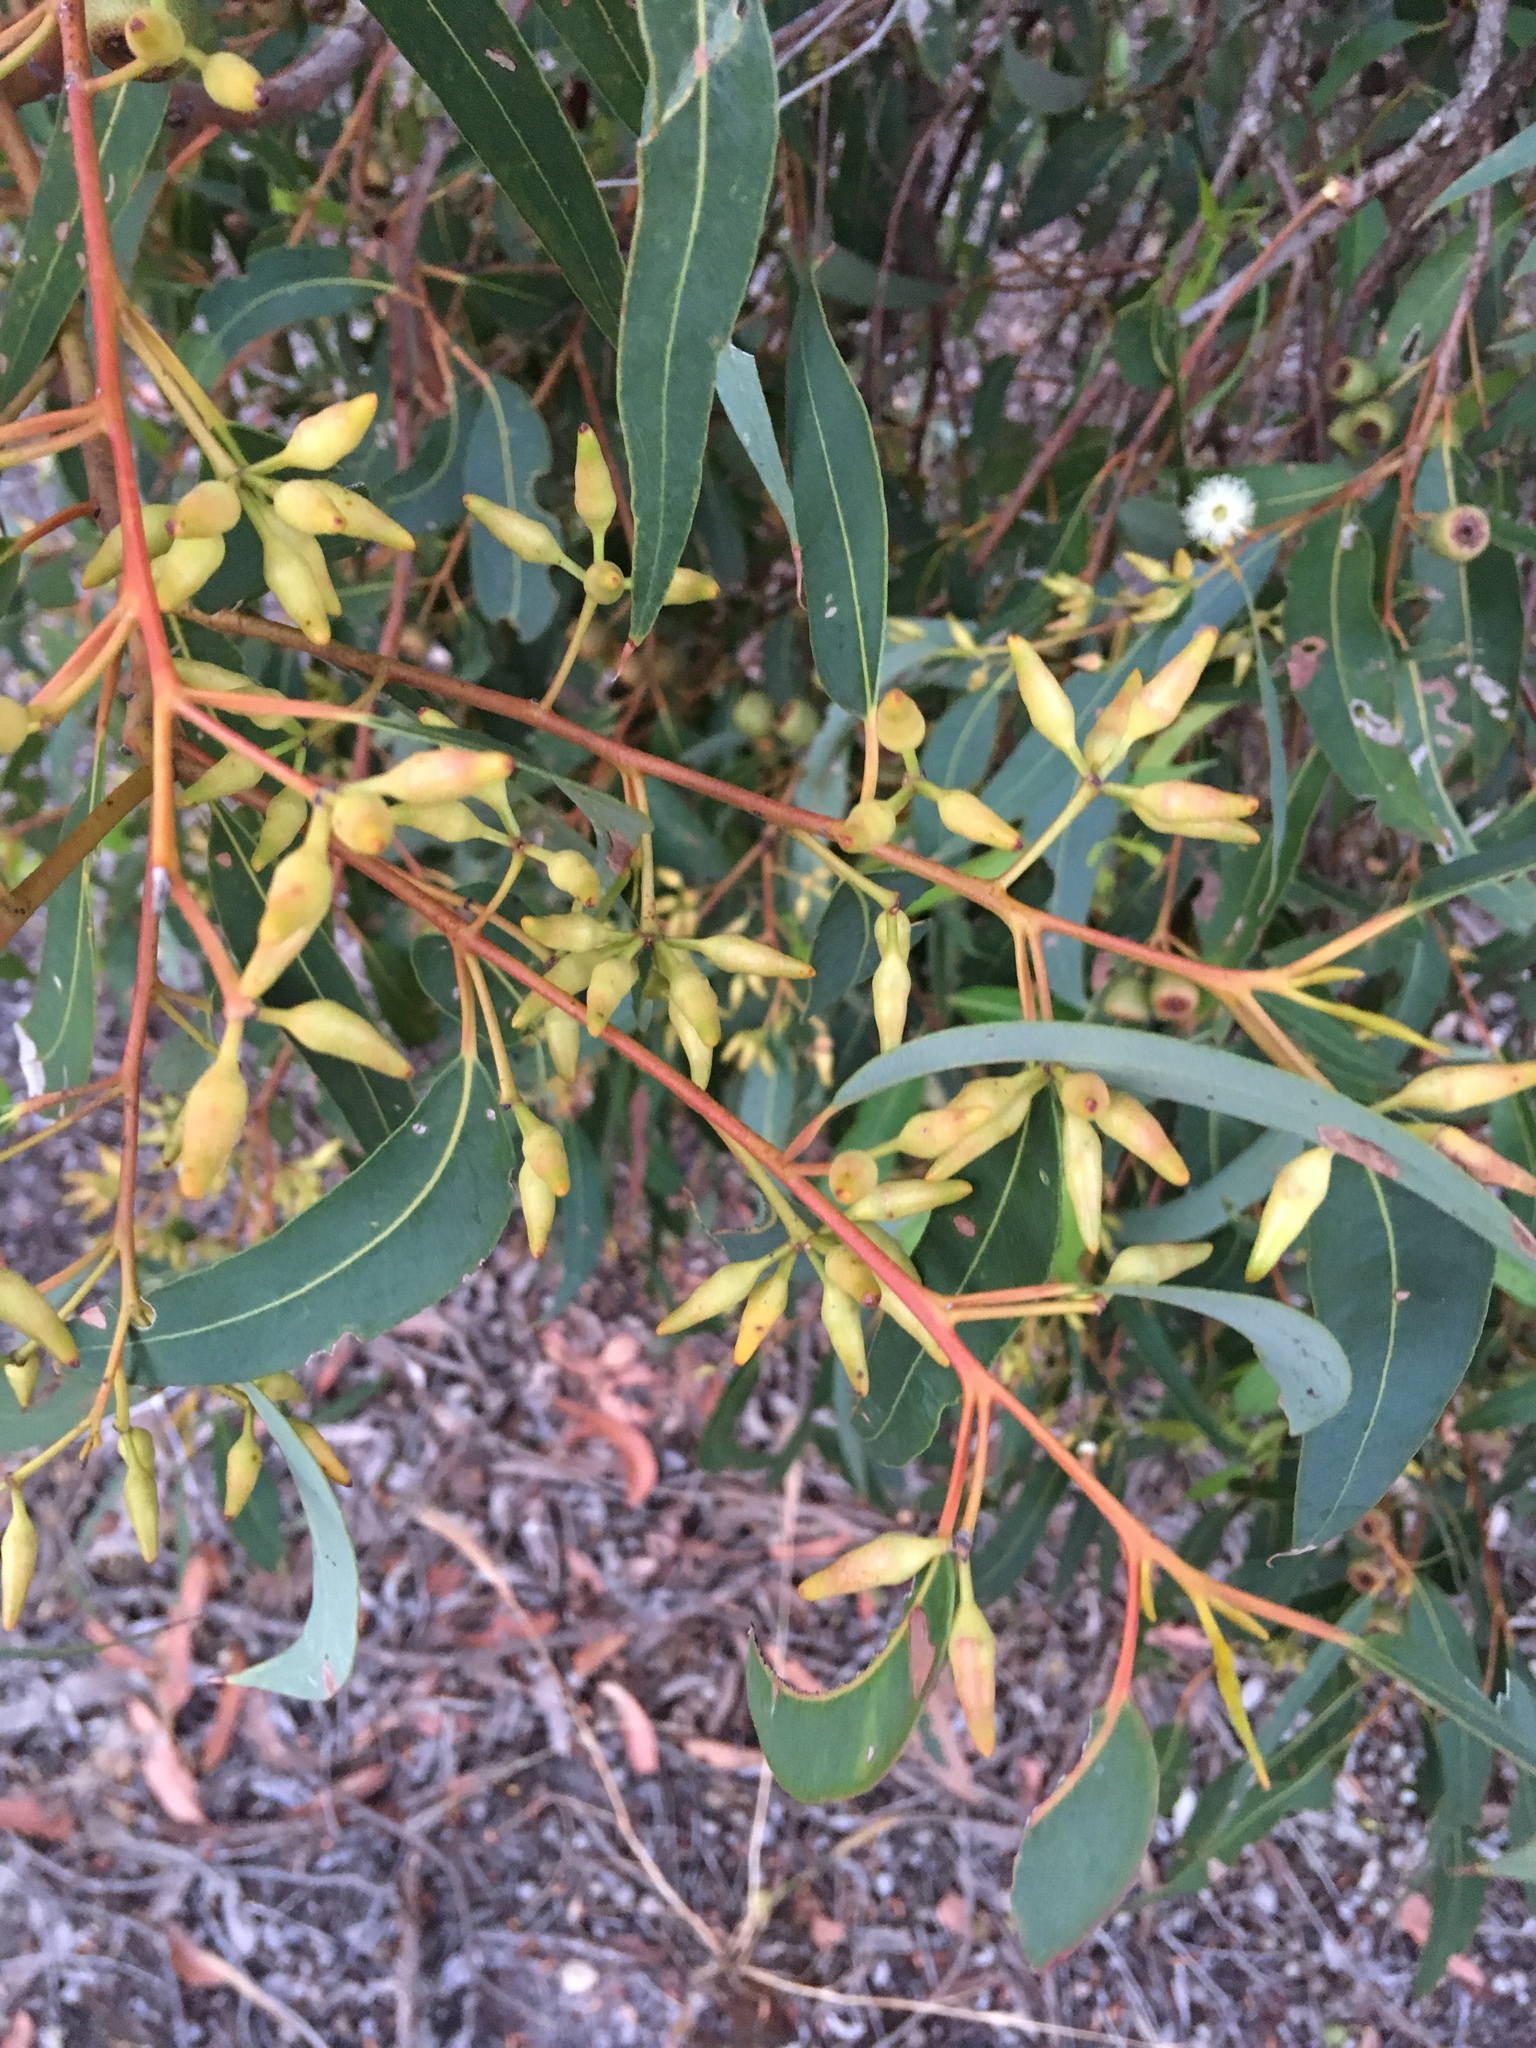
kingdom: Plantae
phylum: Tracheophyta
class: Magnoliopsida
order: Myrtales
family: Myrtaceae
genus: Eucalyptus
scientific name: Eucalyptus marginata
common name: Jarrah
